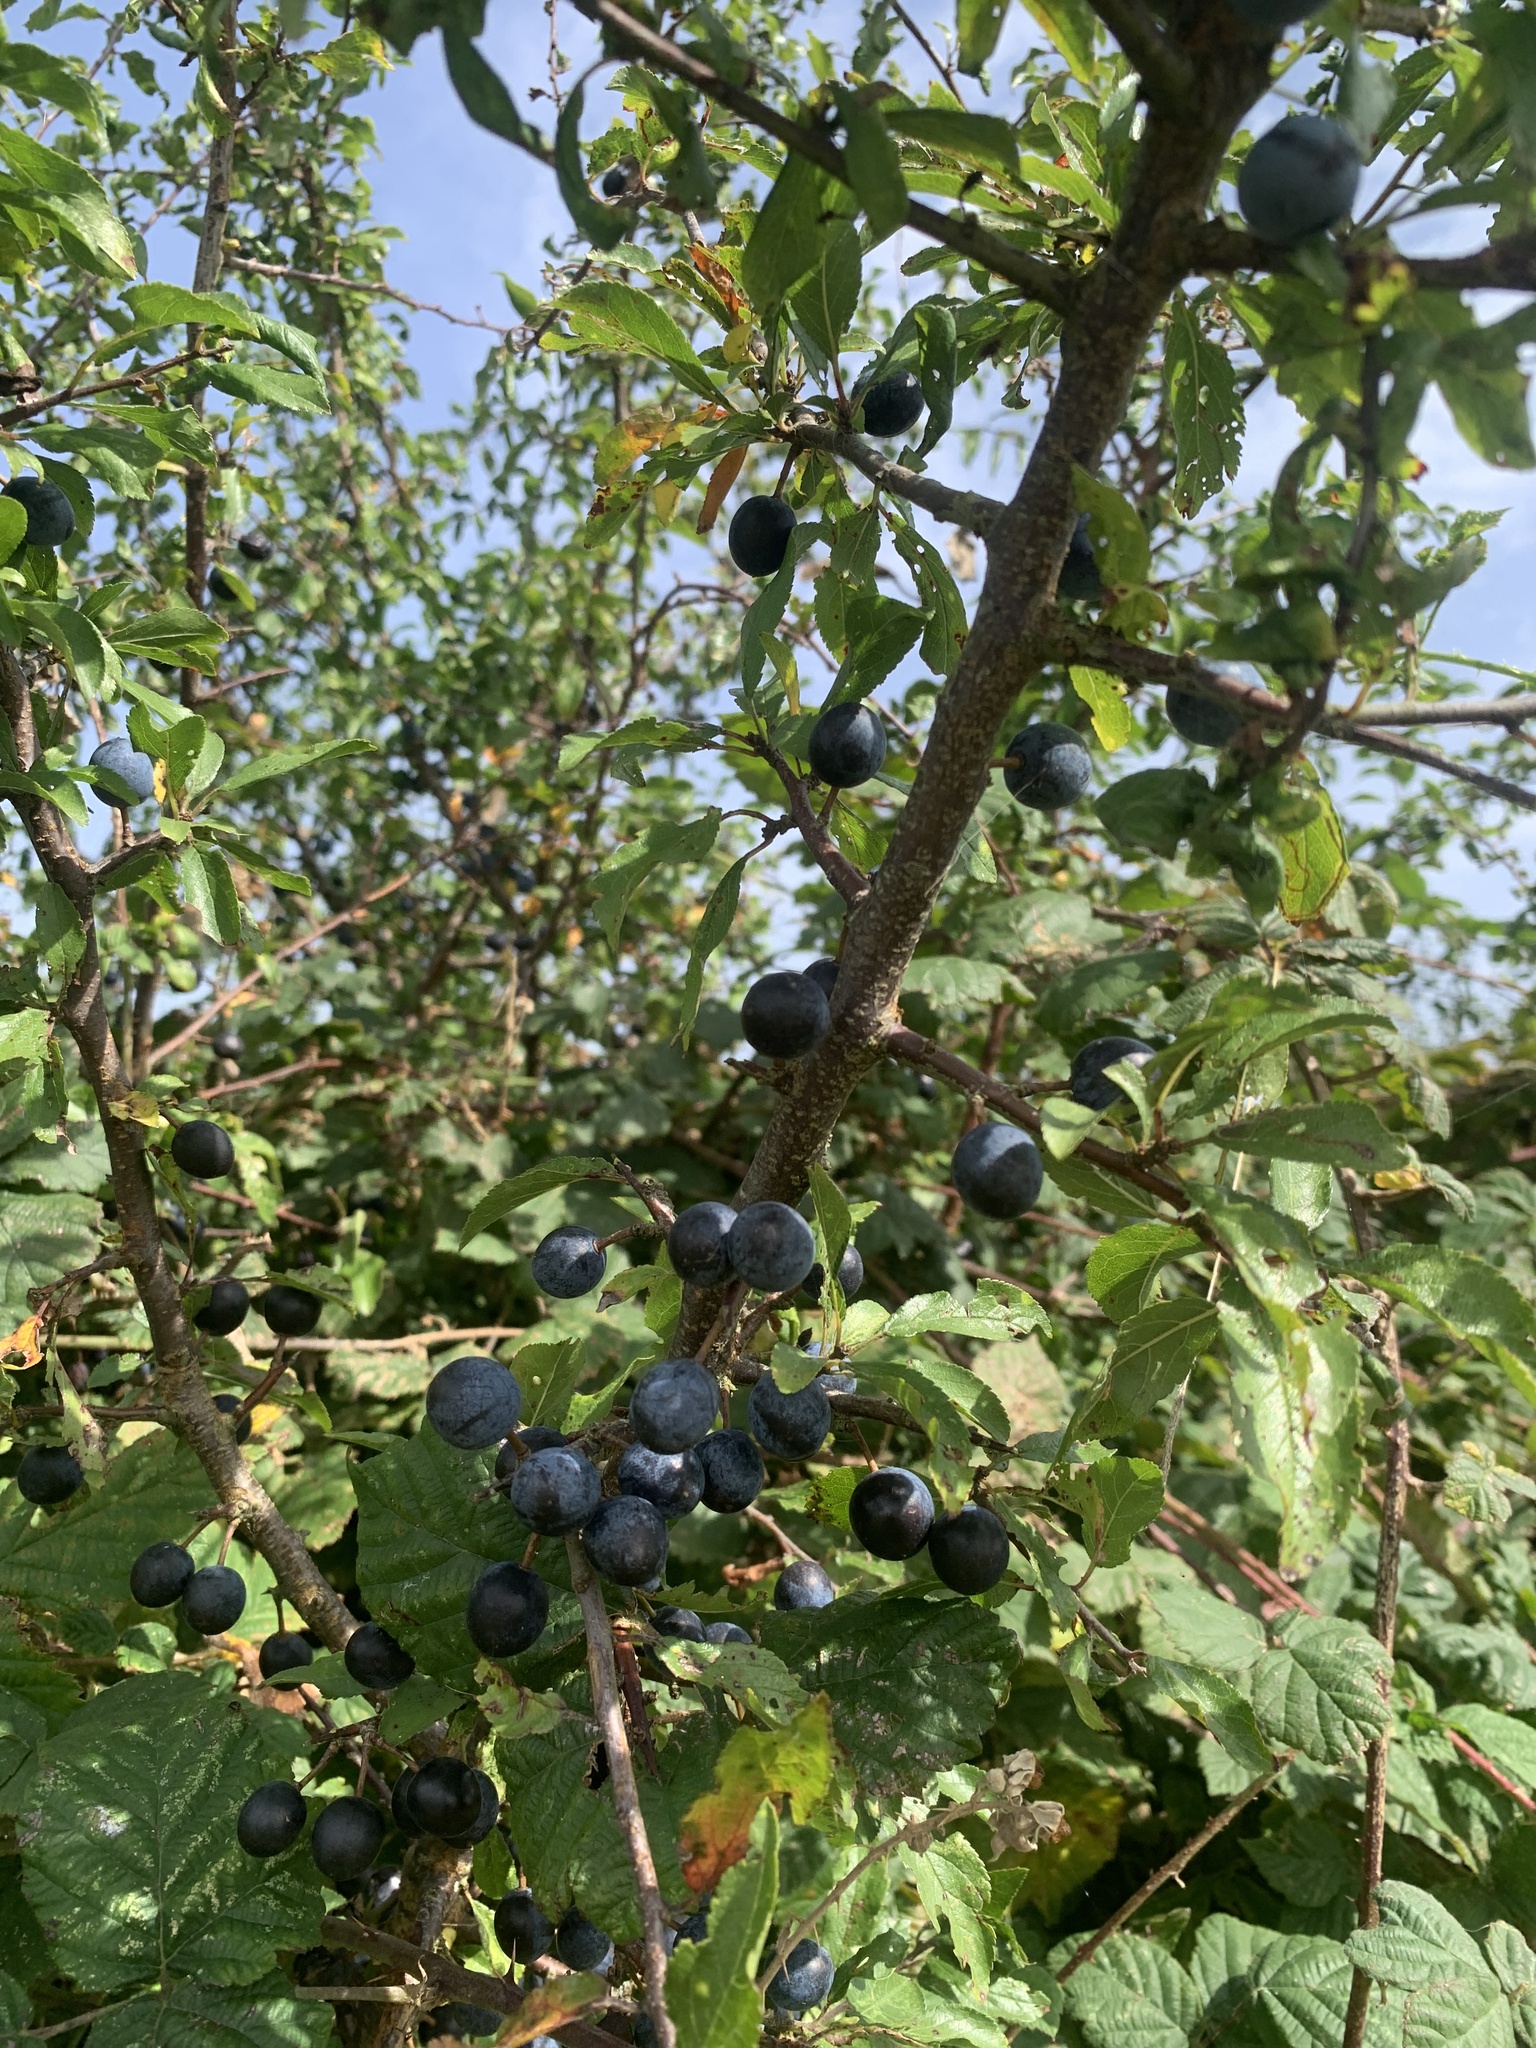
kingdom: Plantae
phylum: Tracheophyta
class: Magnoliopsida
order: Rosales
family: Rosaceae
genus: Prunus
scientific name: Prunus spinosa
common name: Blackthorn
